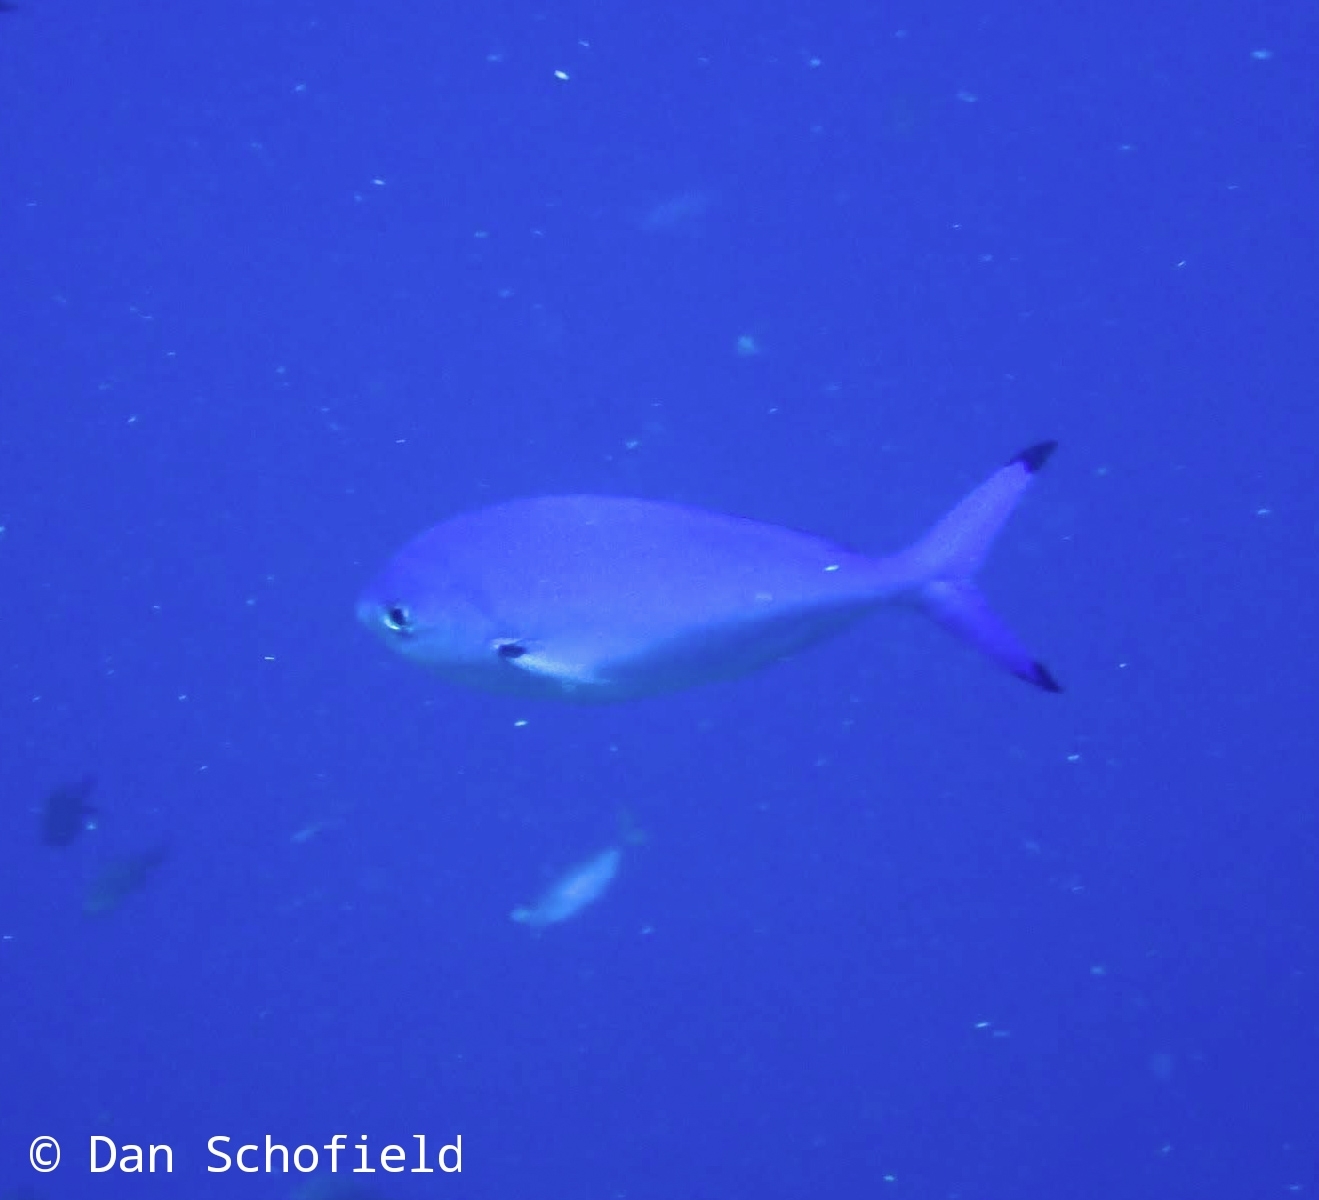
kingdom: Animalia
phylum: Chordata
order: Perciformes
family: Caesionidae
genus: Caesio
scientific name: Caesio lunaris
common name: Blue fusilier
